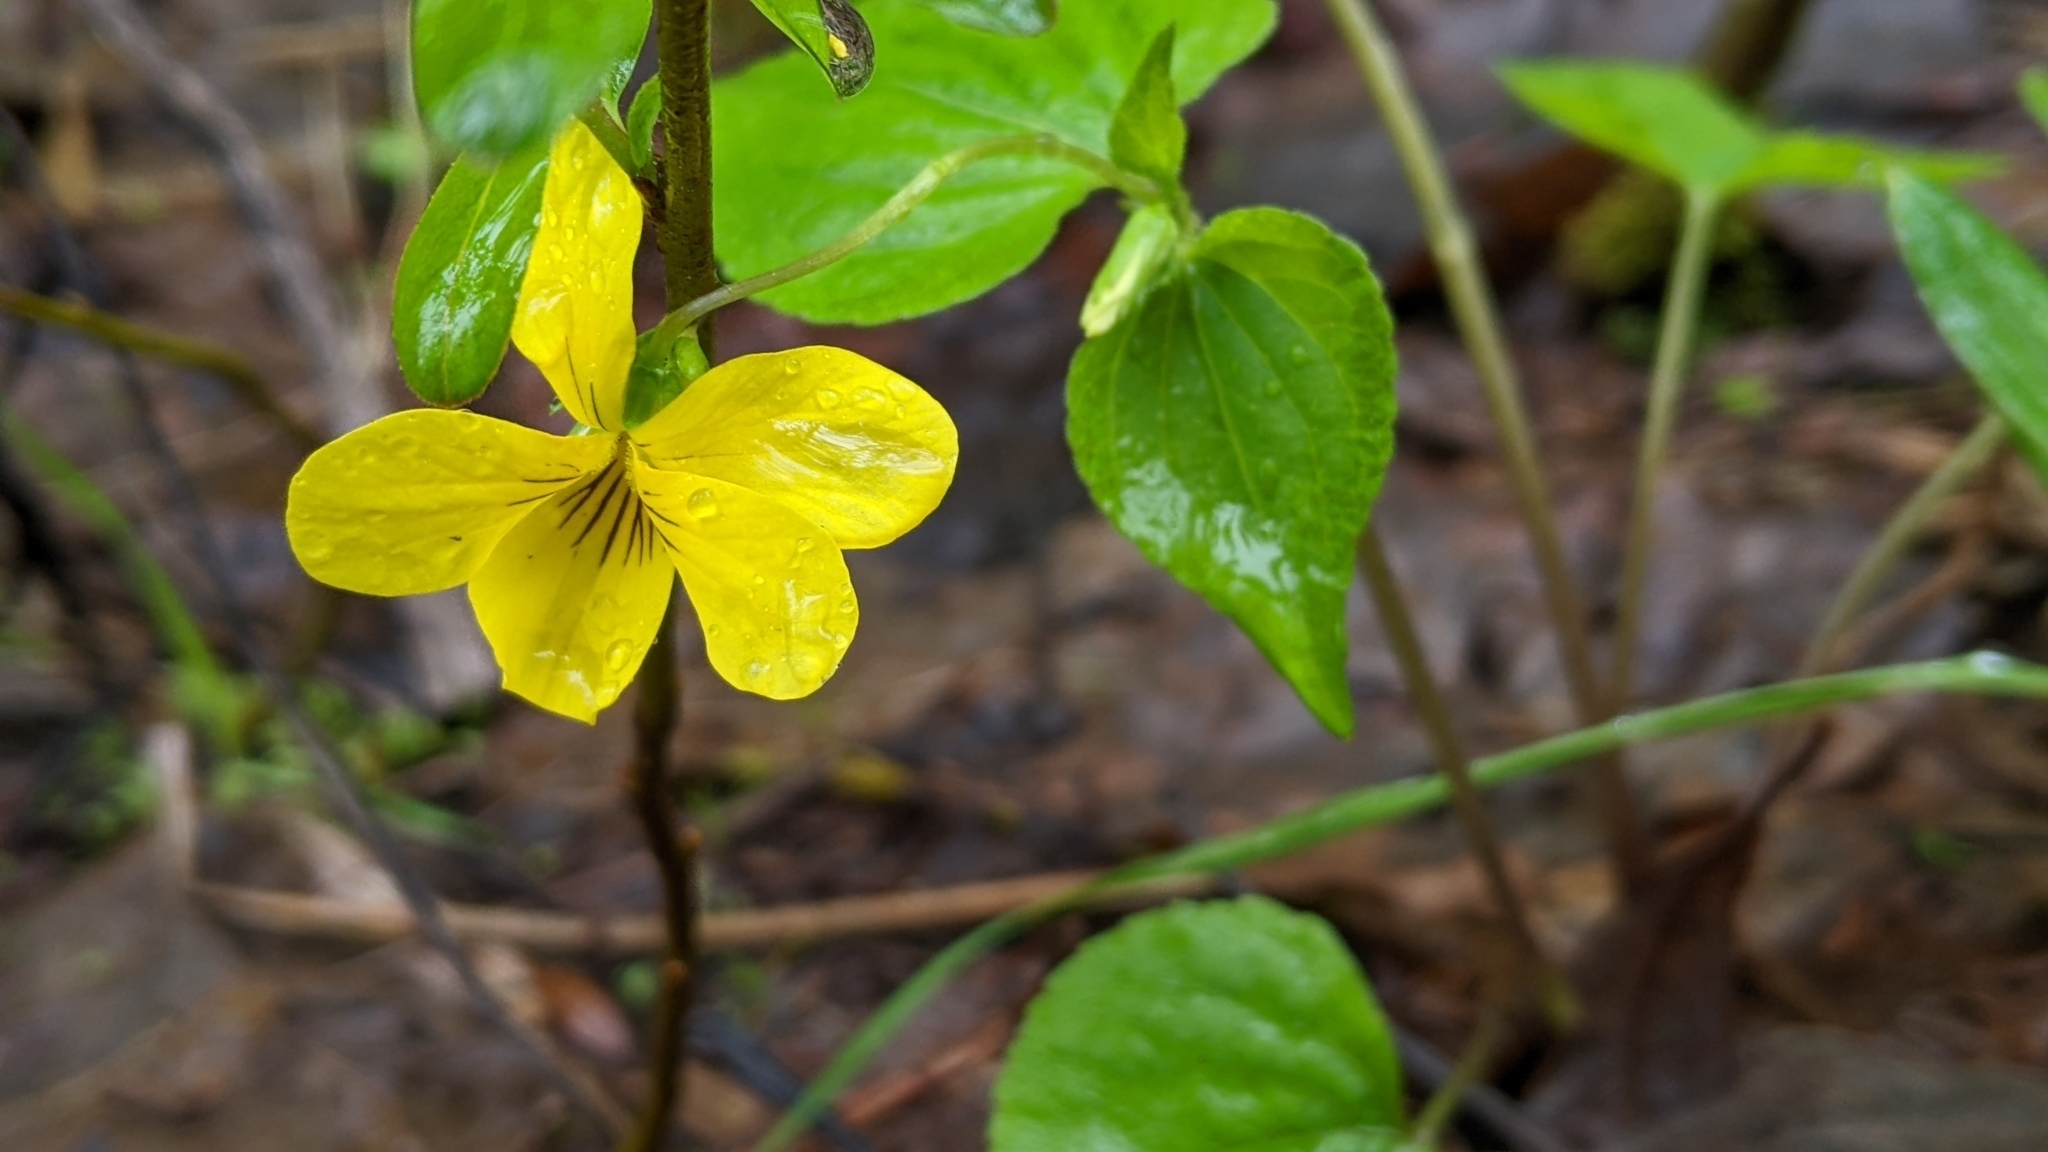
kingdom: Plantae
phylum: Tracheophyta
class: Magnoliopsida
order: Malpighiales
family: Violaceae
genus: Viola
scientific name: Viola glabella
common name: Stream violet
